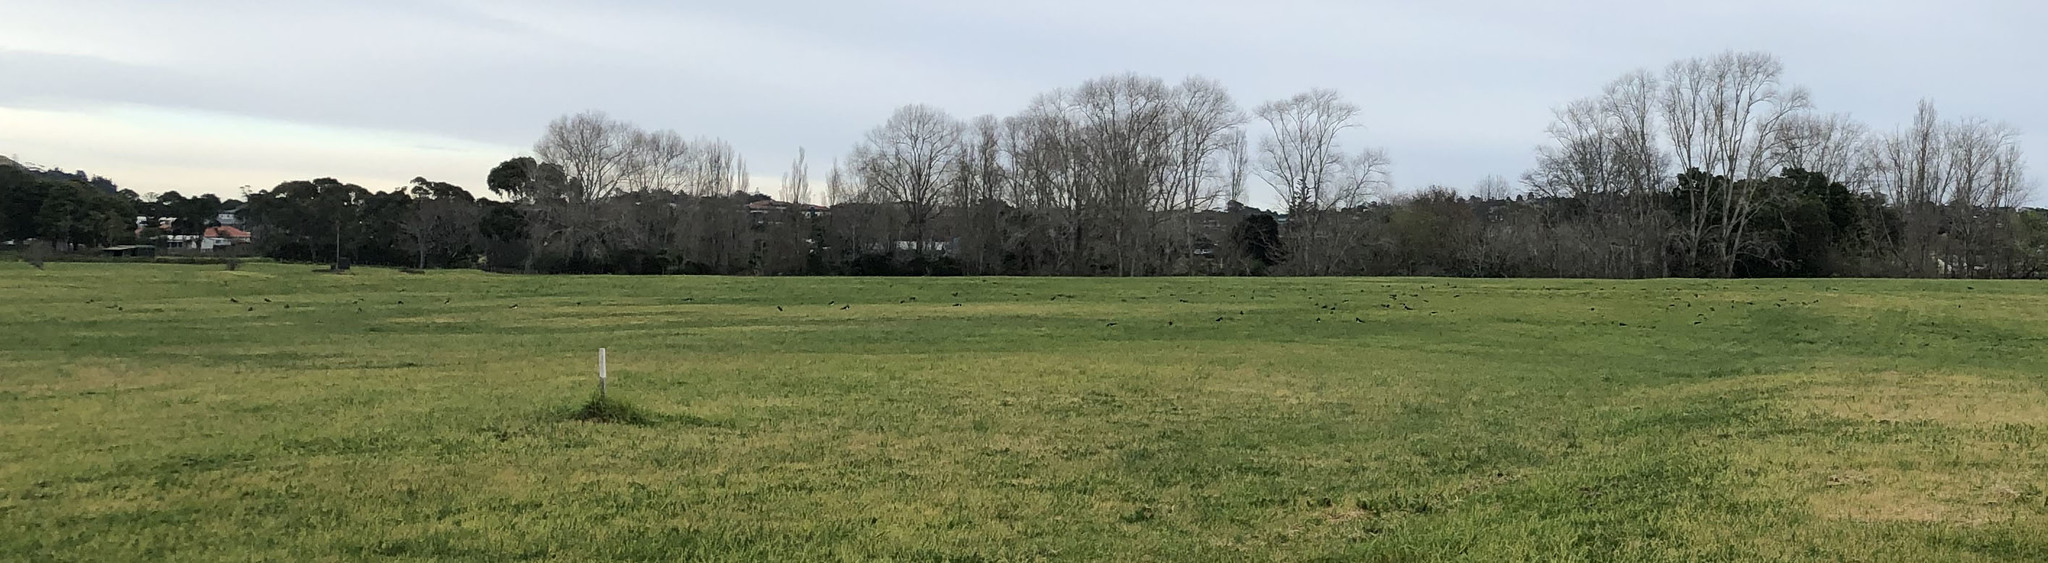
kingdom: Animalia
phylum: Chordata
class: Aves
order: Charadriiformes
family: Haematopodidae
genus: Haematopus
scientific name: Haematopus finschi
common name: South island oystercatcher
